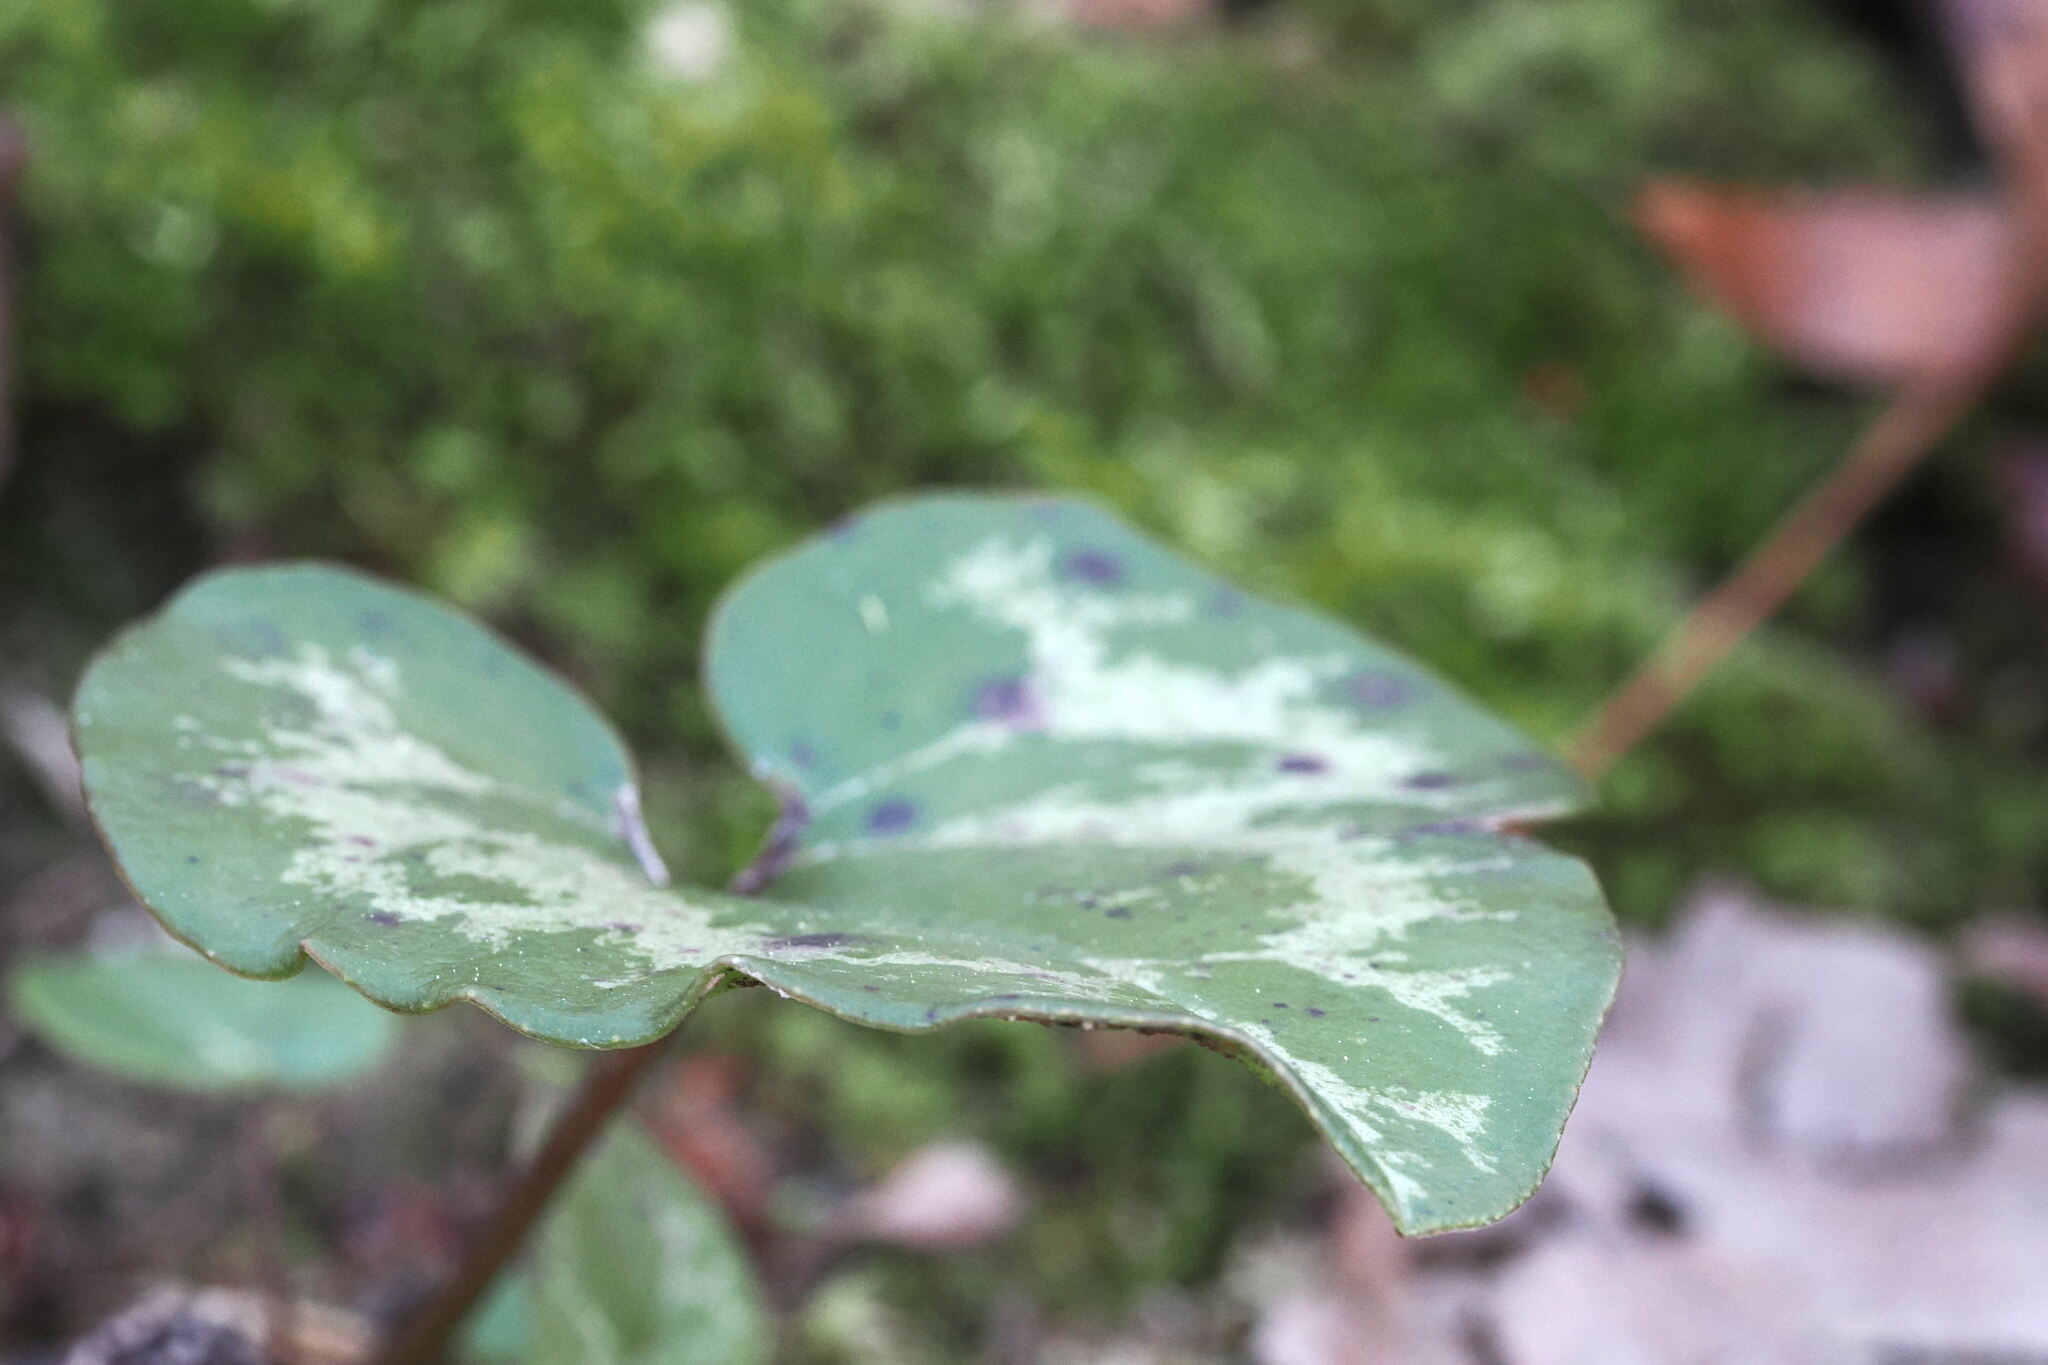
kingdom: Plantae
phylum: Tracheophyta
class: Magnoliopsida
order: Piperales
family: Aristolochiaceae
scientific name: Aristolochiaceae
